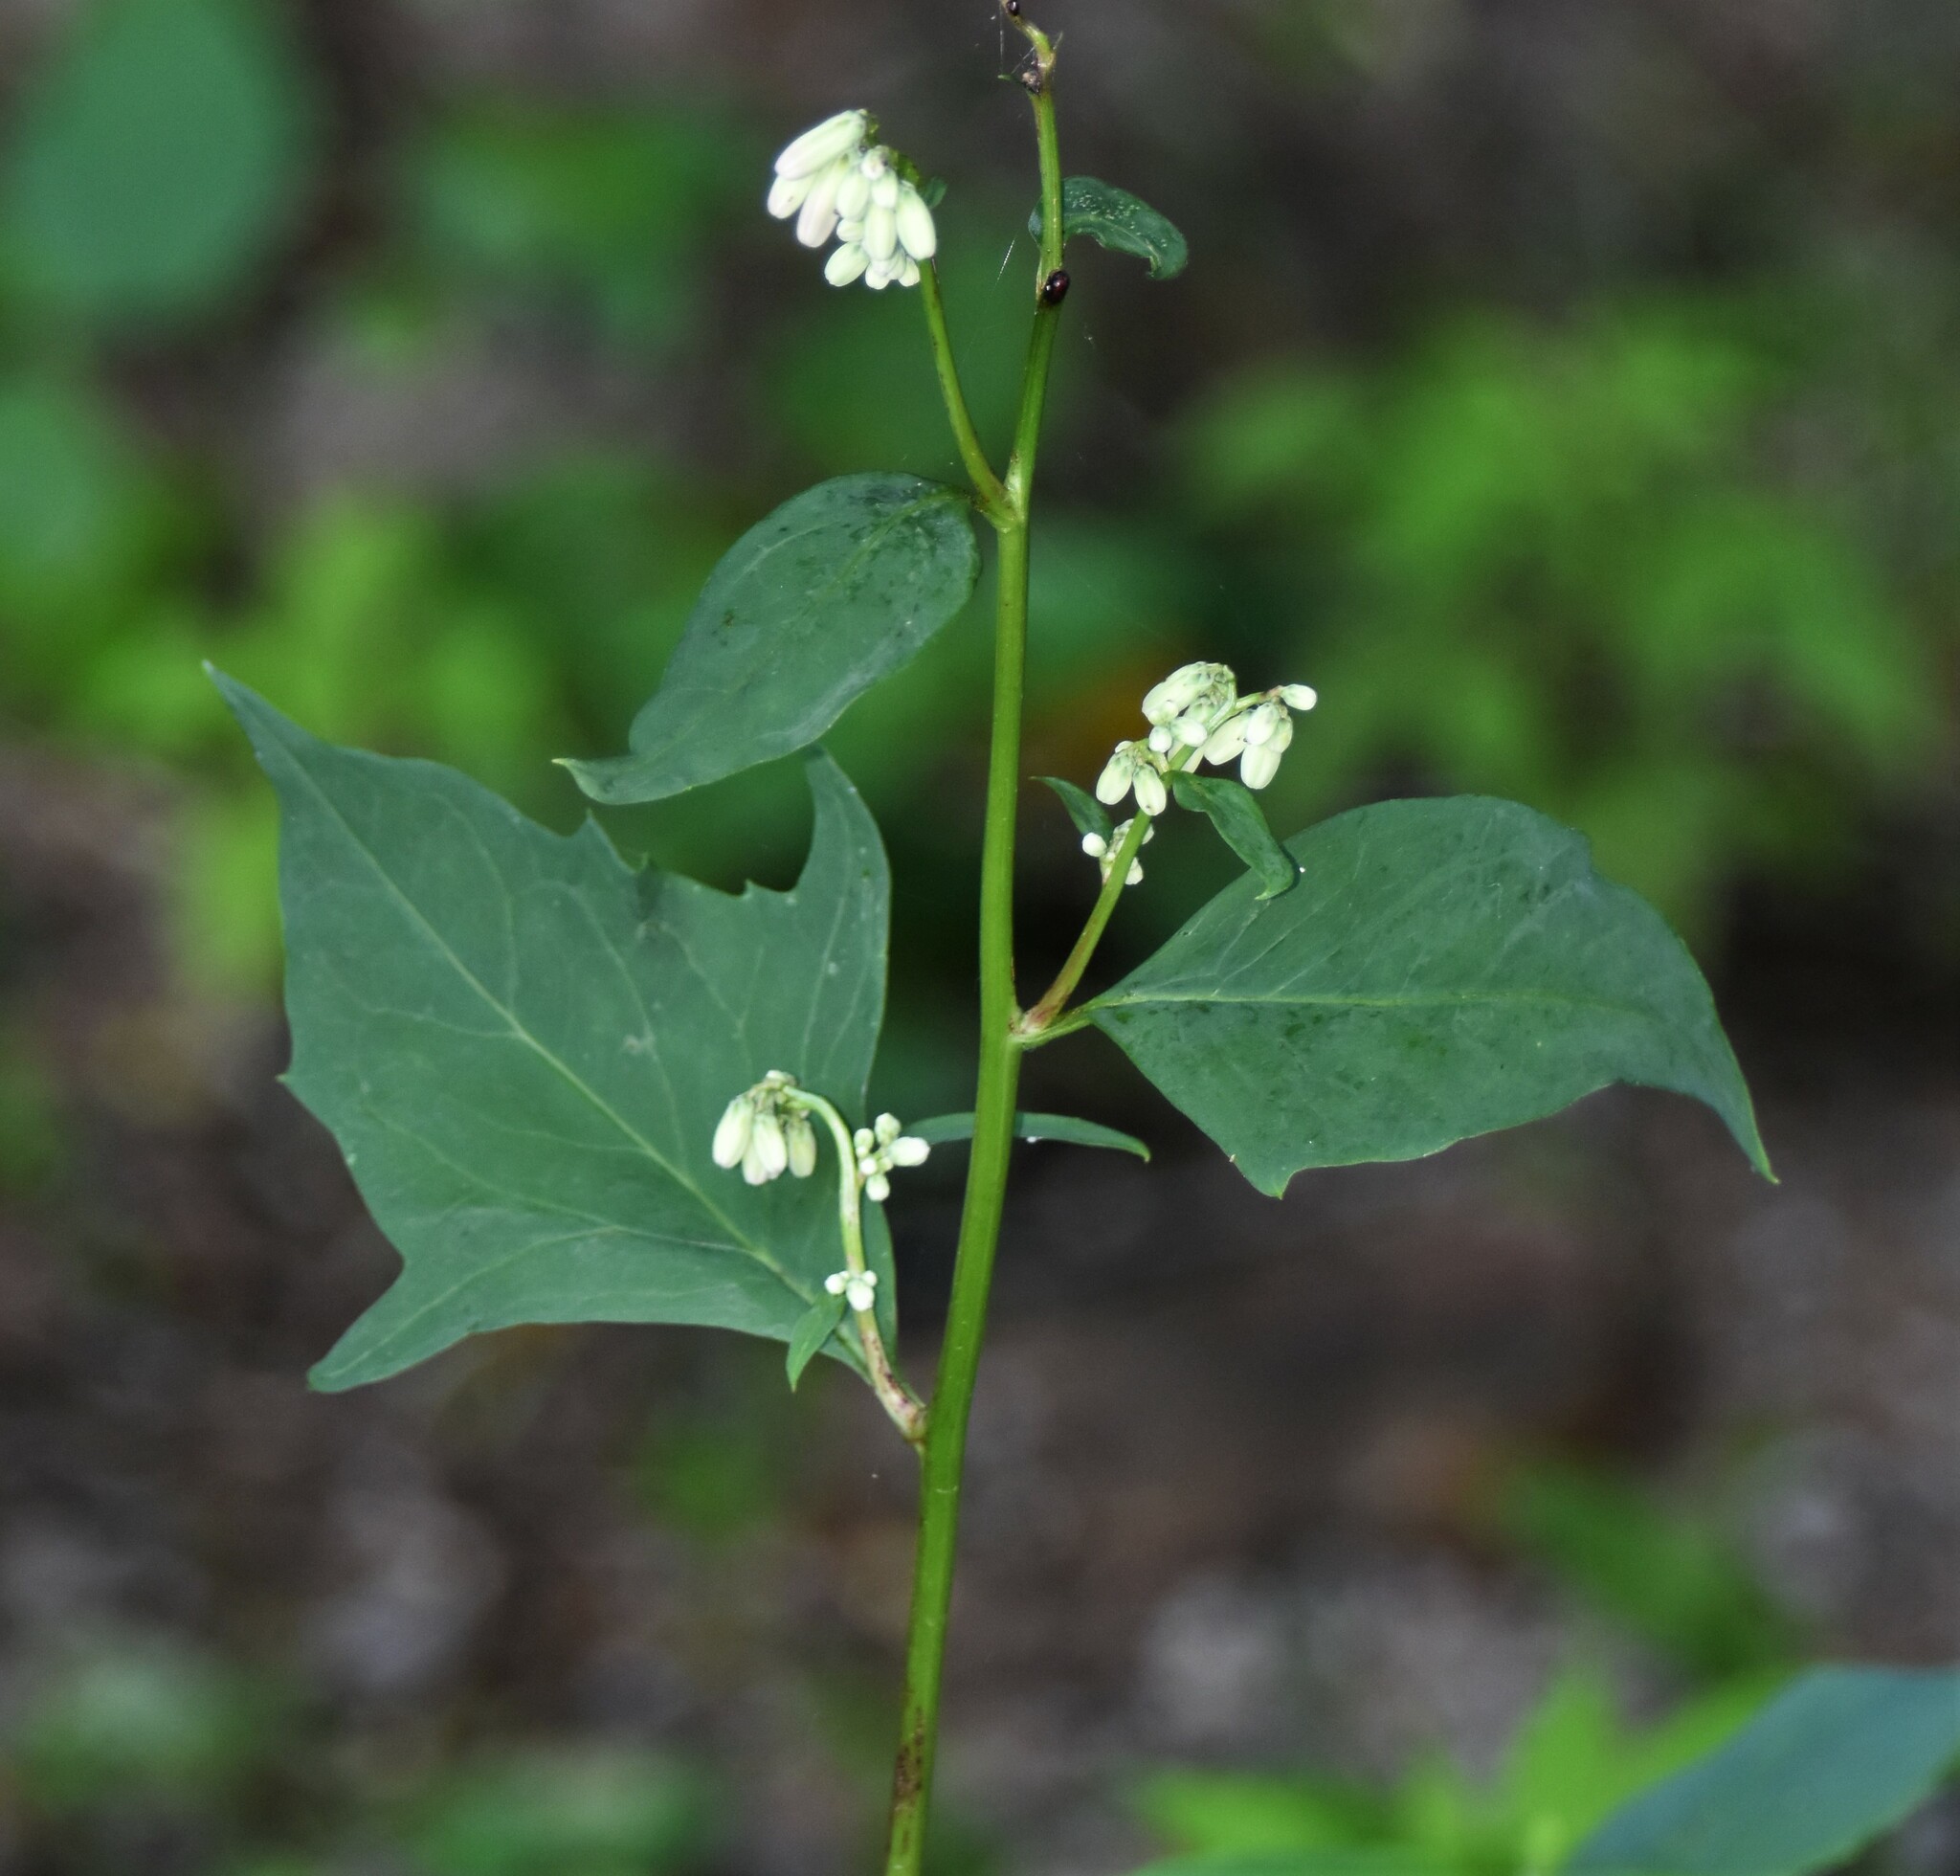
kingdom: Plantae
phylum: Tracheophyta
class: Magnoliopsida
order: Asterales
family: Asteraceae
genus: Nabalus
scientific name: Nabalus albus
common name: White rattlesnakeroot
